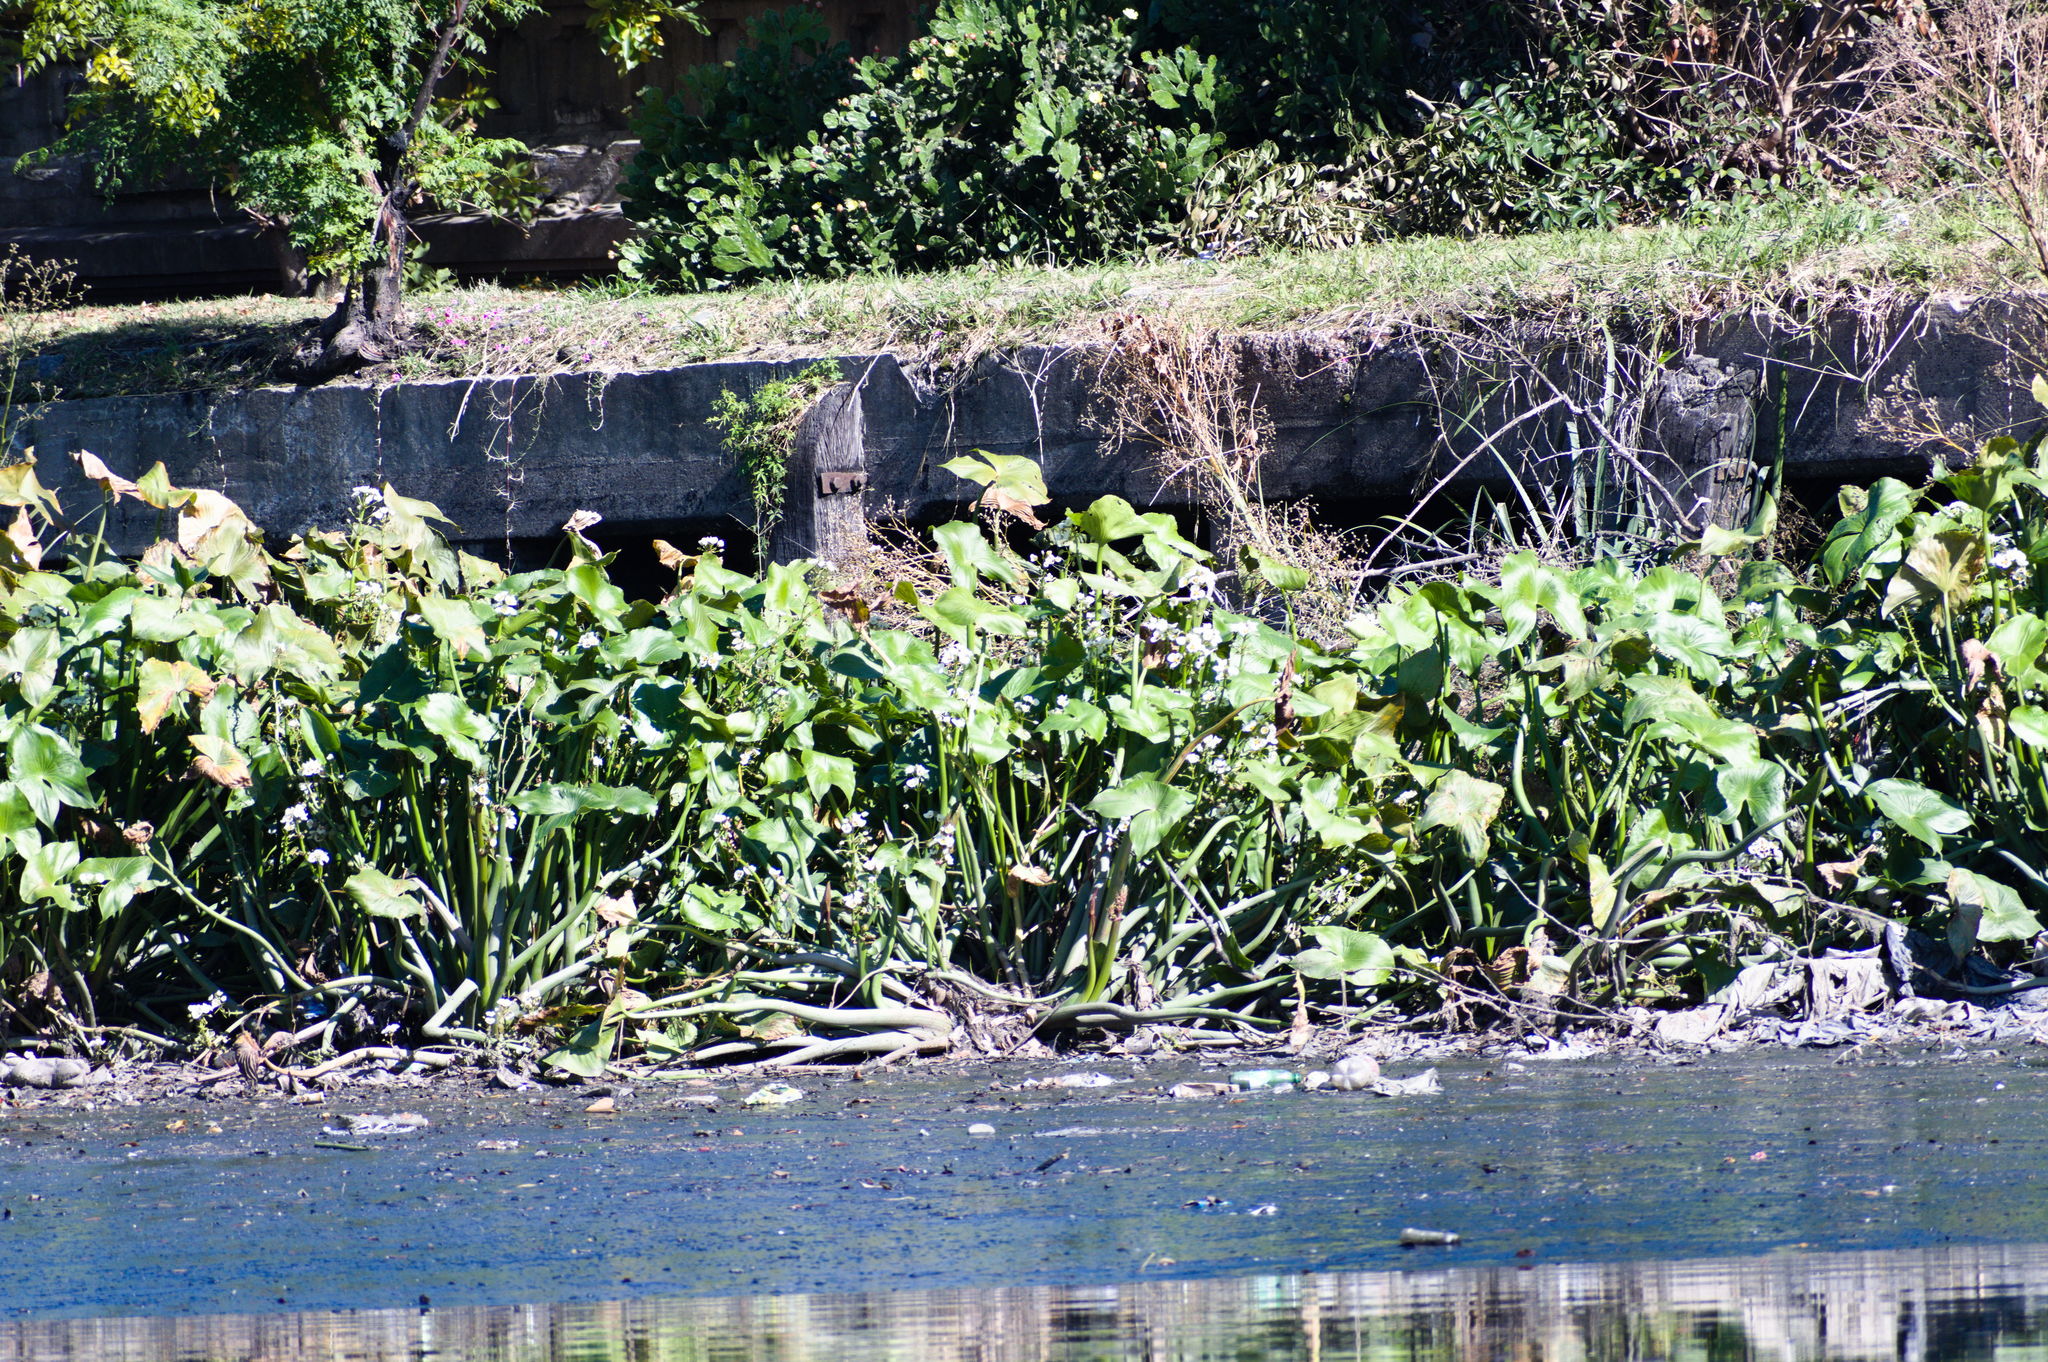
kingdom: Plantae
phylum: Tracheophyta
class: Liliopsida
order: Alismatales
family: Alismataceae
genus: Sagittaria
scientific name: Sagittaria montevidensis
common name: Giant arrowhead
